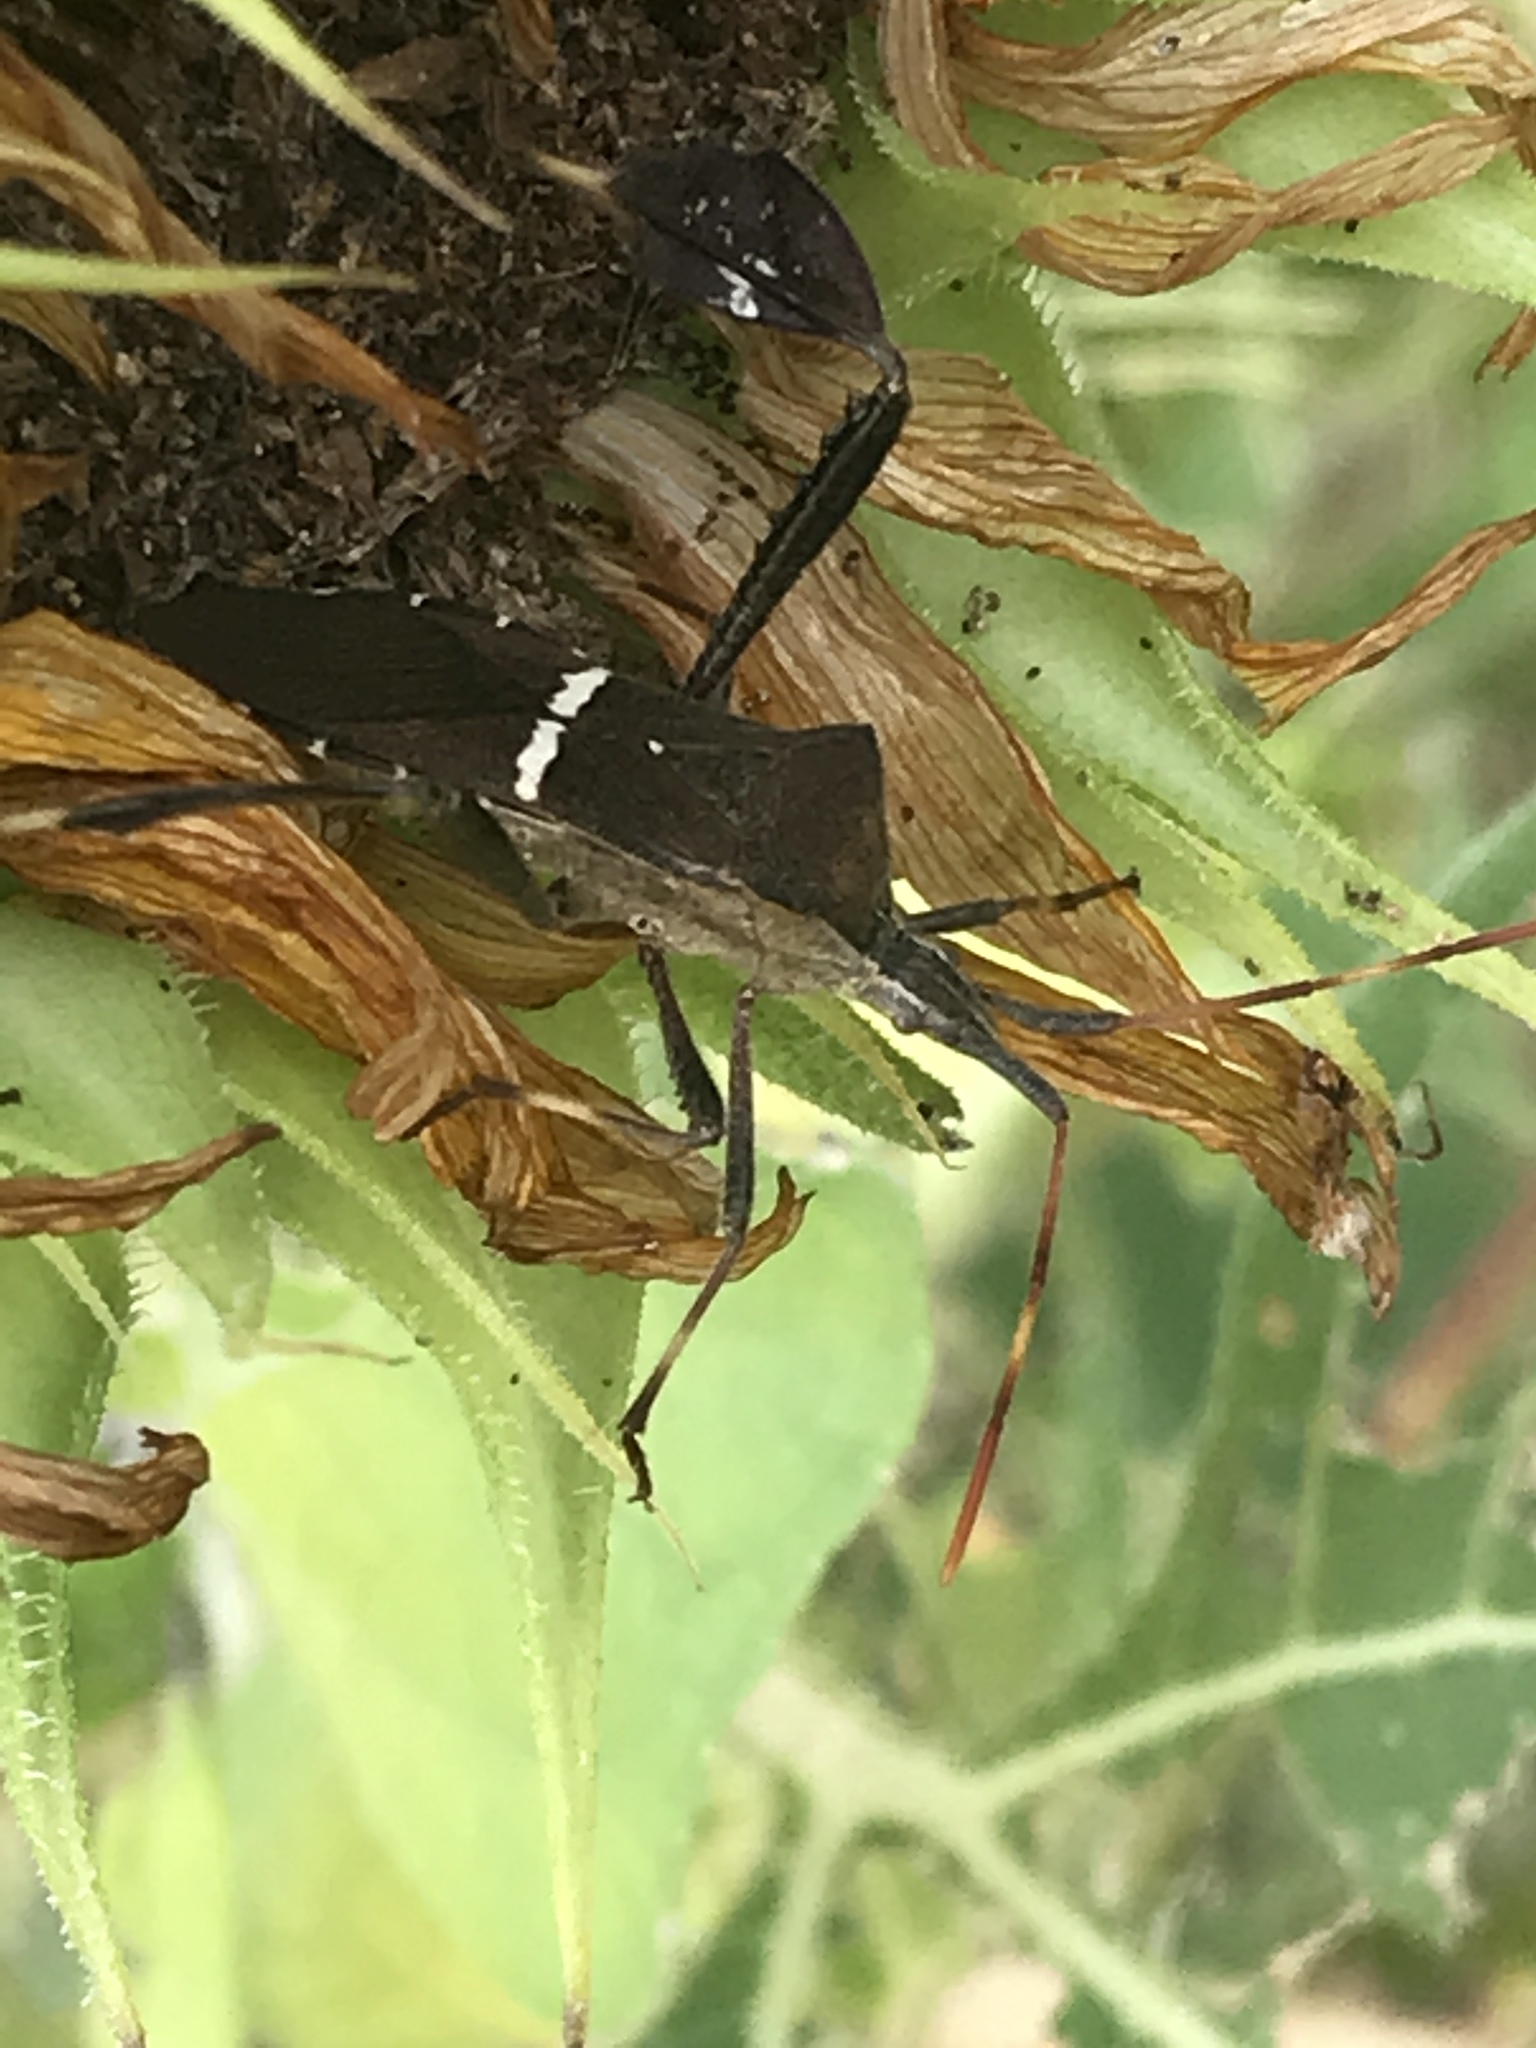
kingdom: Animalia
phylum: Arthropoda
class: Insecta
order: Hemiptera
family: Coreidae
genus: Leptoglossus
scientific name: Leptoglossus phyllopus
